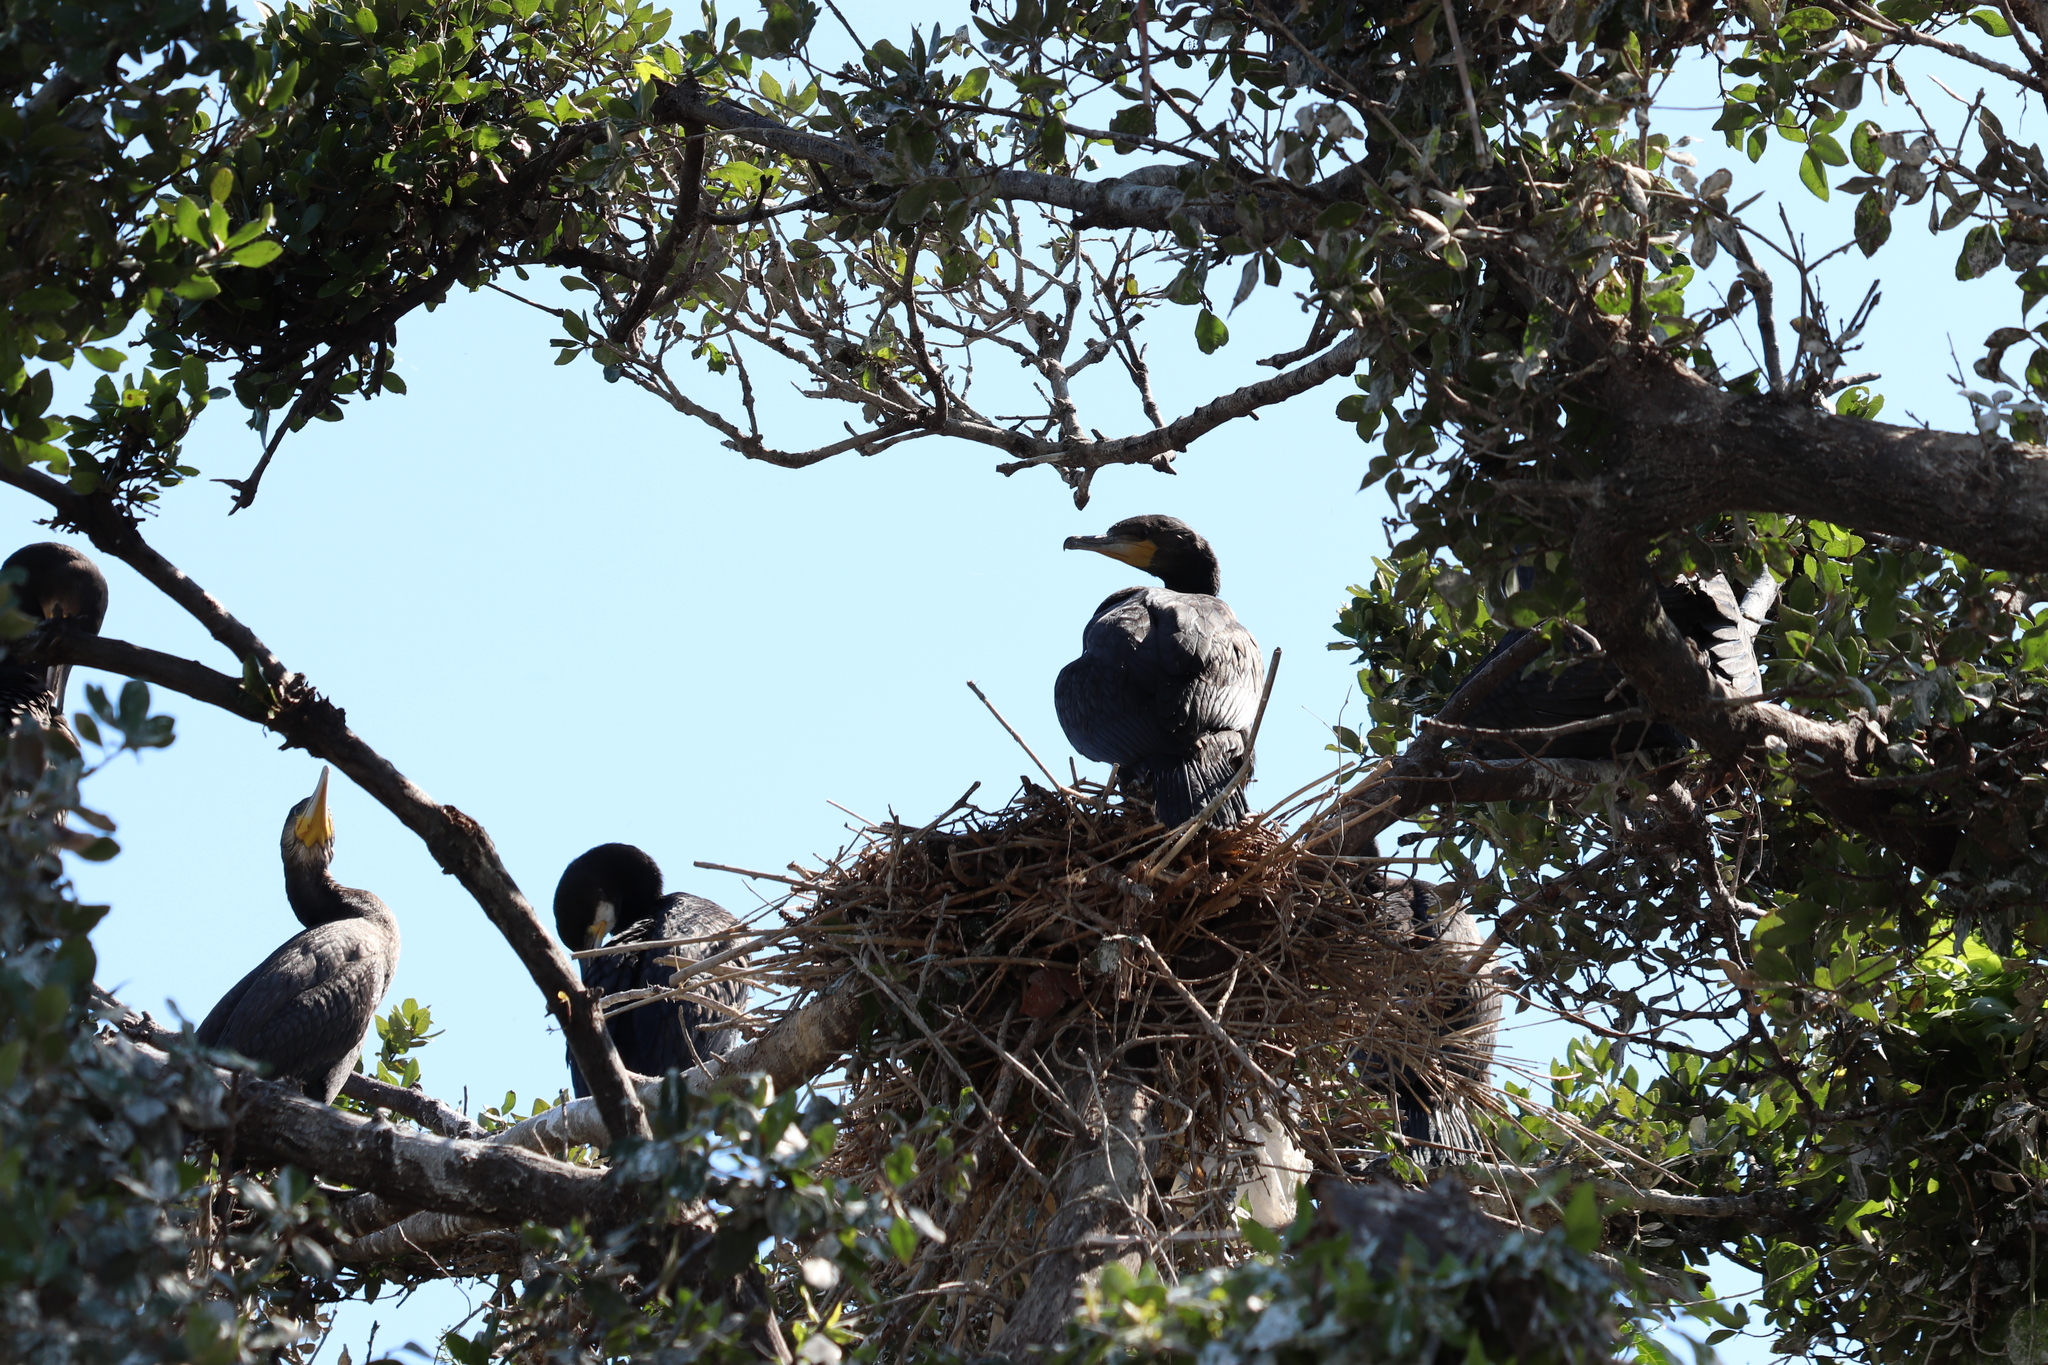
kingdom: Animalia
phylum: Chordata
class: Aves
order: Suliformes
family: Phalacrocoracidae
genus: Phalacrocorax
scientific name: Phalacrocorax carbo
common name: Great cormorant
